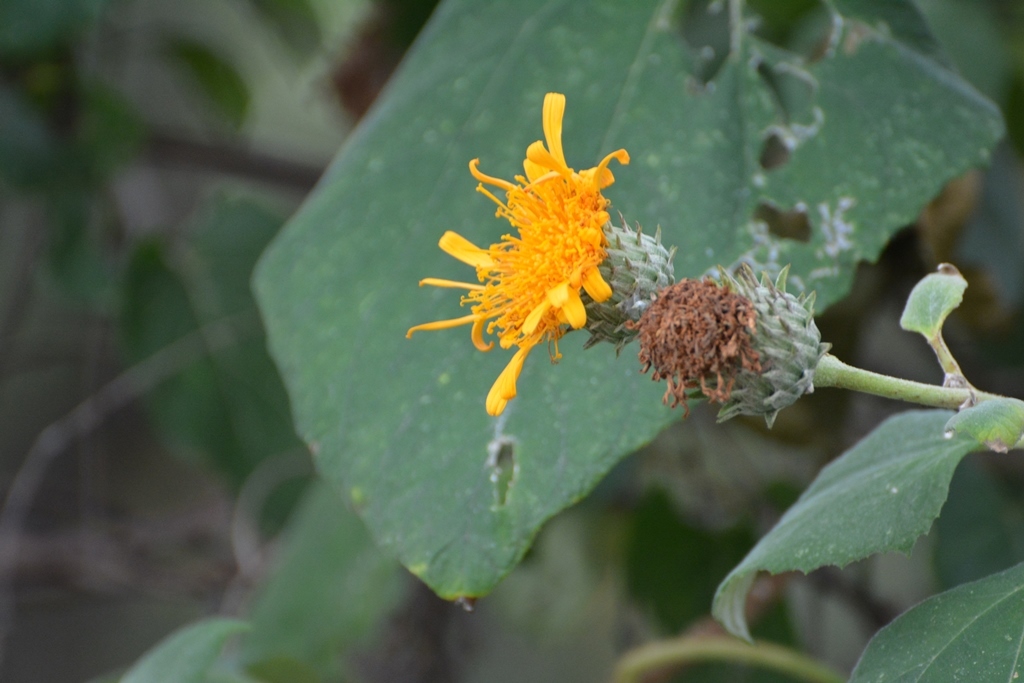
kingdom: Plantae
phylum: Tracheophyta
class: Magnoliopsida
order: Asterales
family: Asteraceae
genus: Sinclairia
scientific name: Sinclairia andrieuxii
